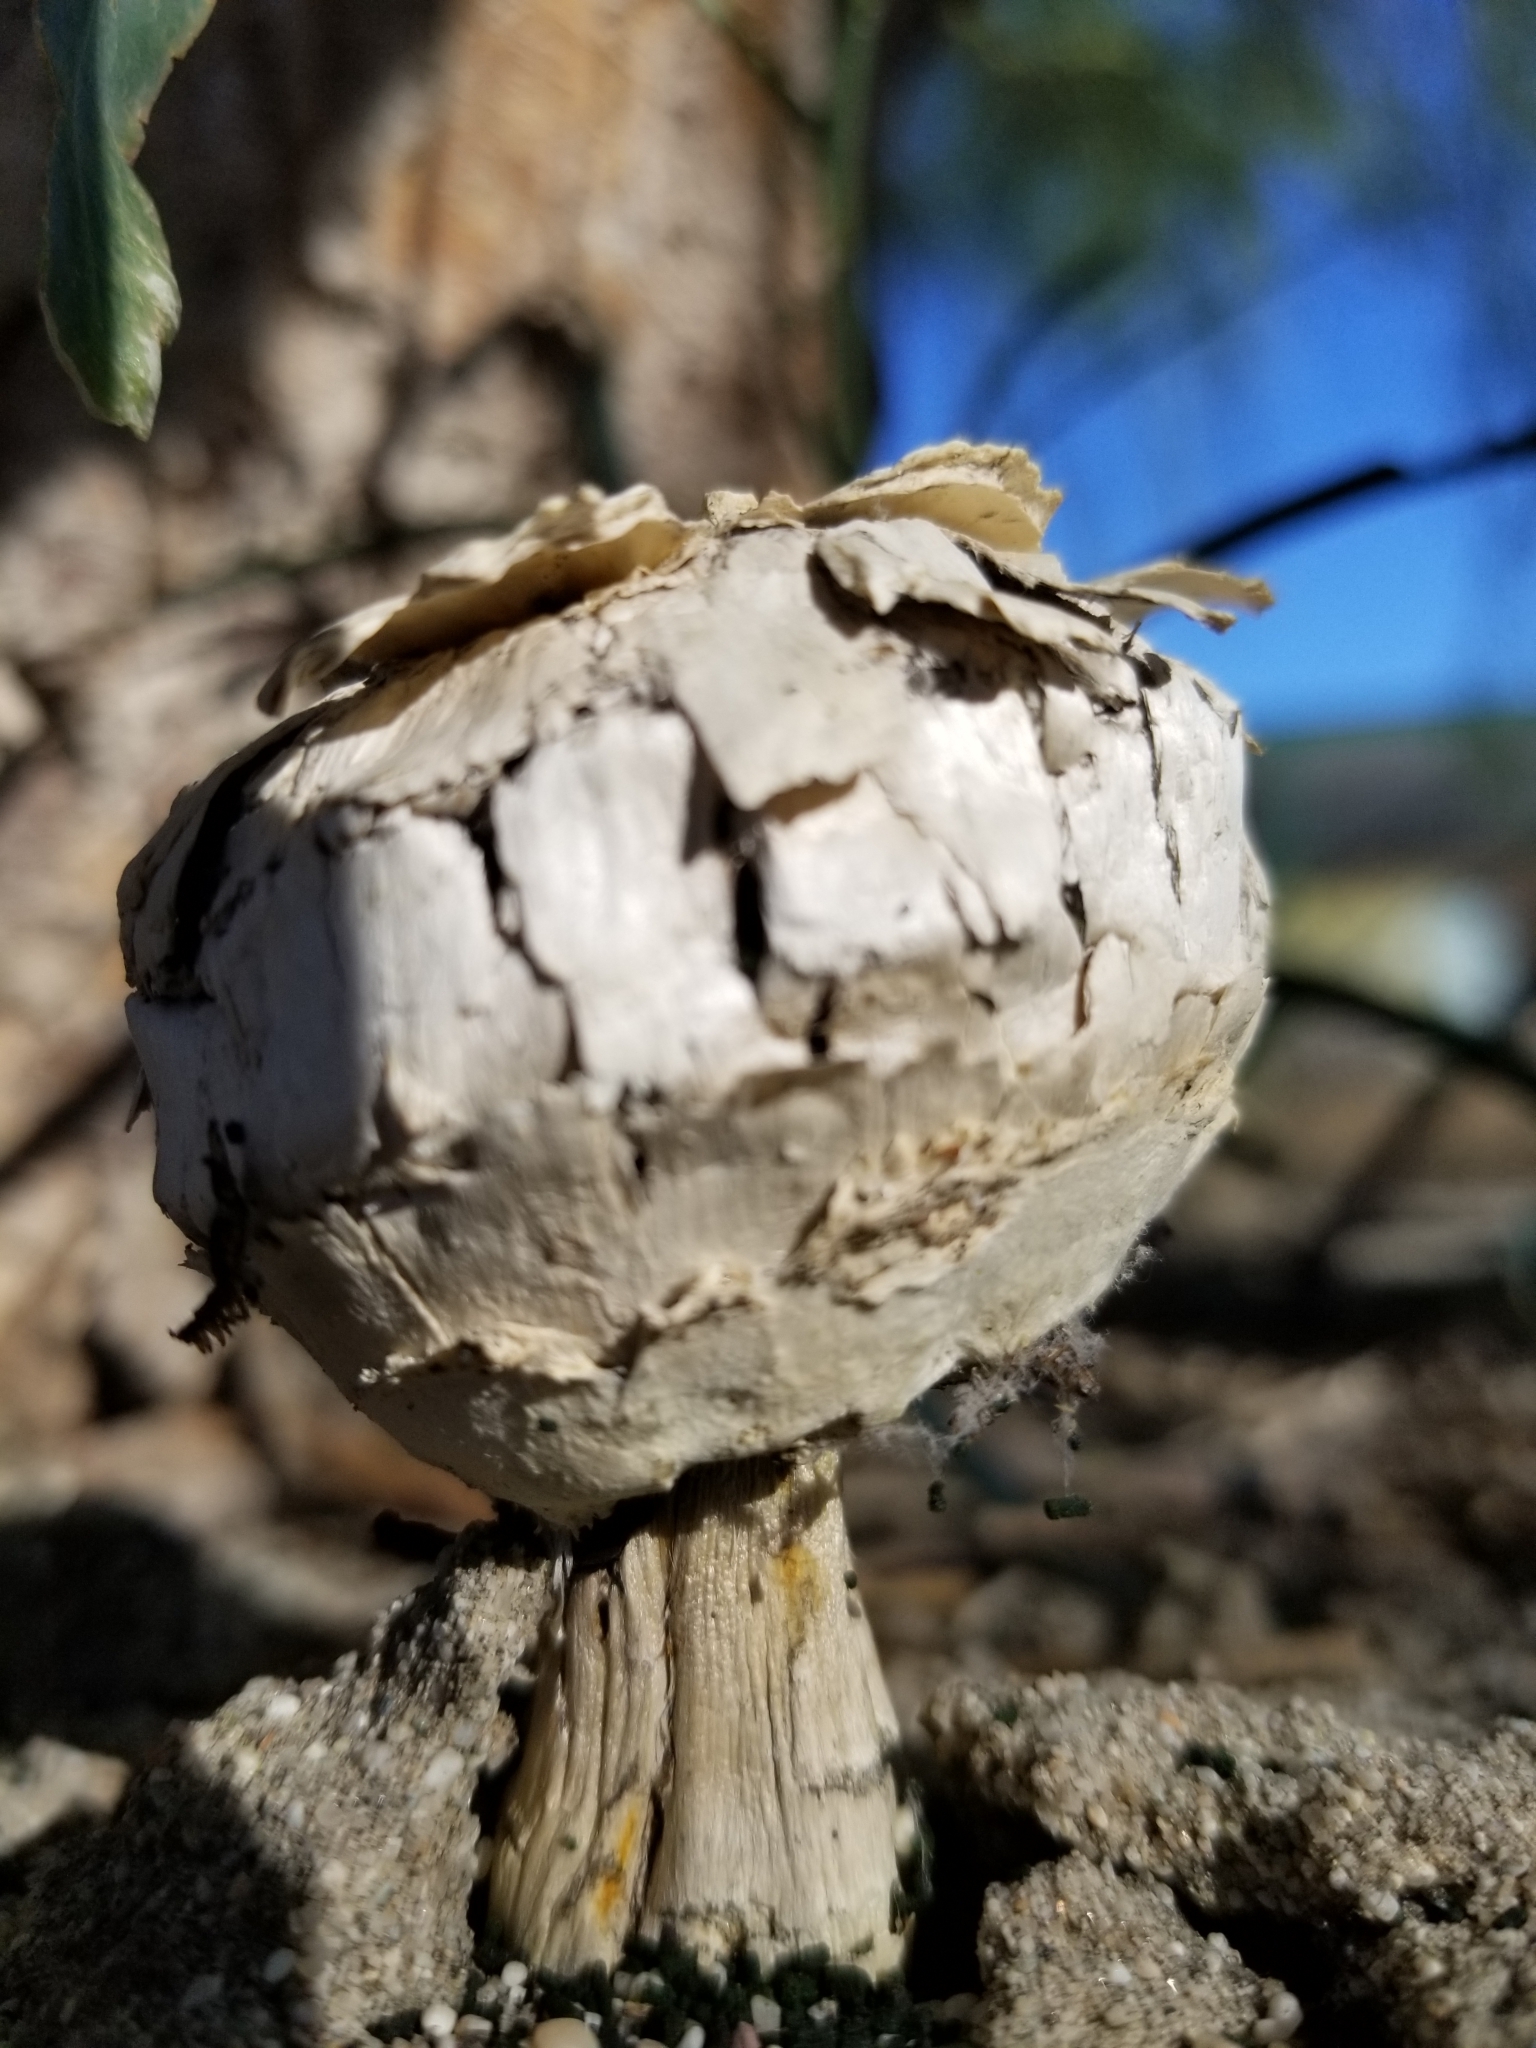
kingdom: Fungi
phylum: Basidiomycota
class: Agaricomycetes
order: Agaricales
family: Agaricaceae
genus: Agaricus
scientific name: Agaricus deserticola
